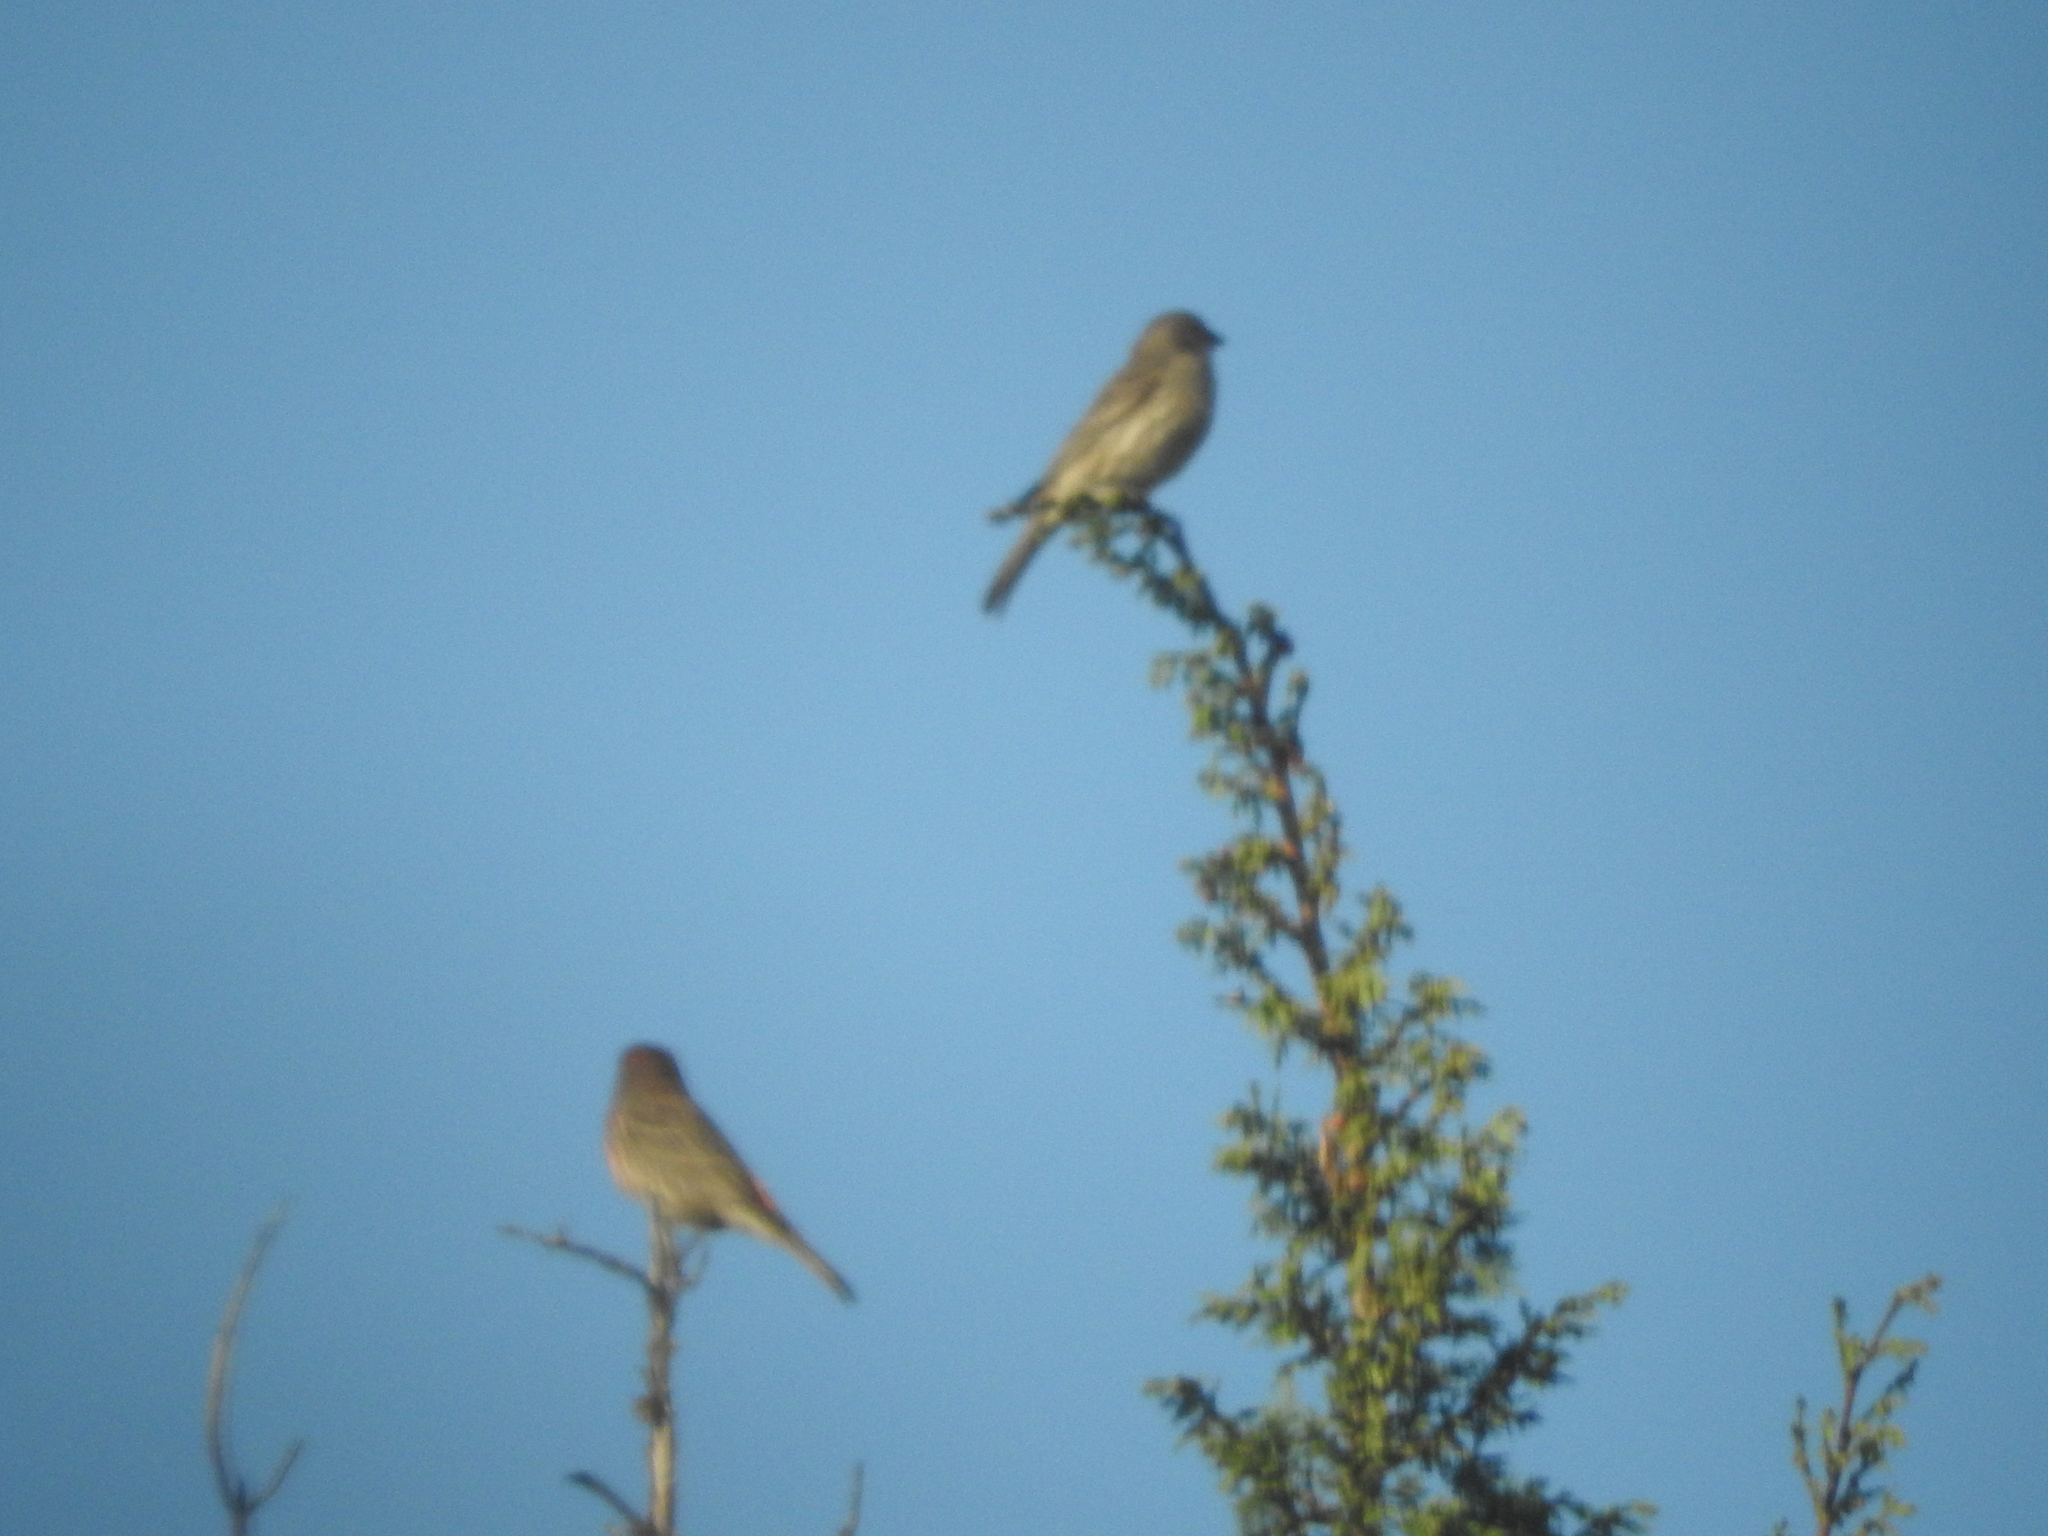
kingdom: Animalia
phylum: Chordata
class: Aves
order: Passeriformes
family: Fringillidae
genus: Haemorhous
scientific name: Haemorhous mexicanus
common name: House finch
